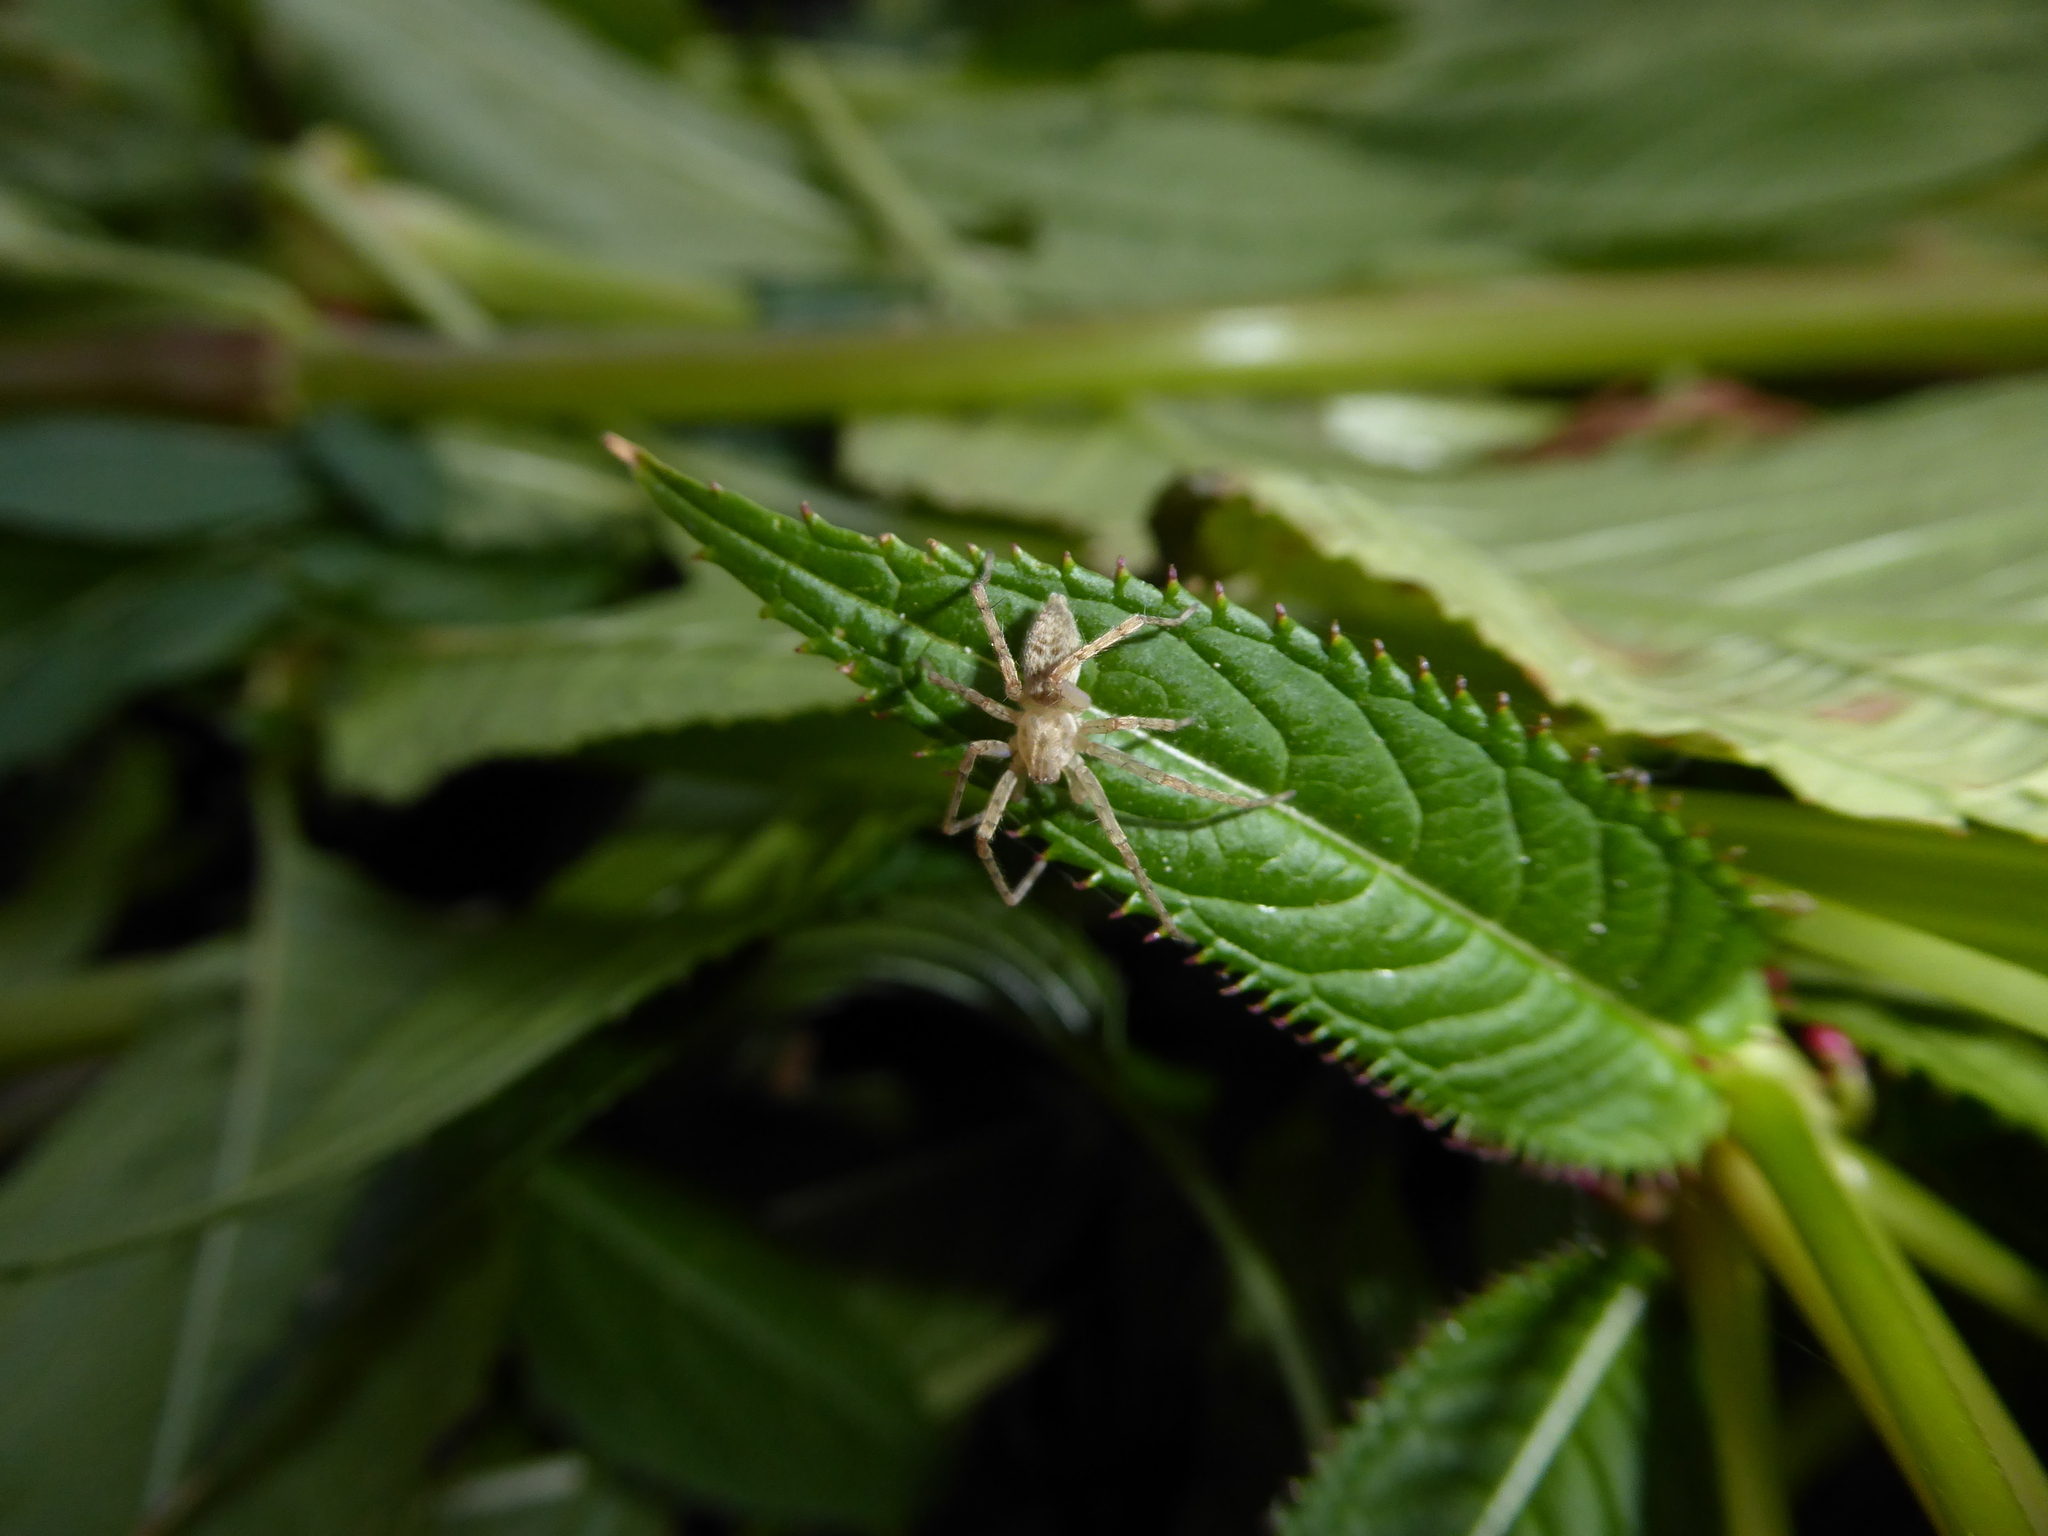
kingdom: Animalia
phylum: Arthropoda
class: Arachnida
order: Araneae
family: Anyphaenidae
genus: Anyphaena
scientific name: Anyphaena
